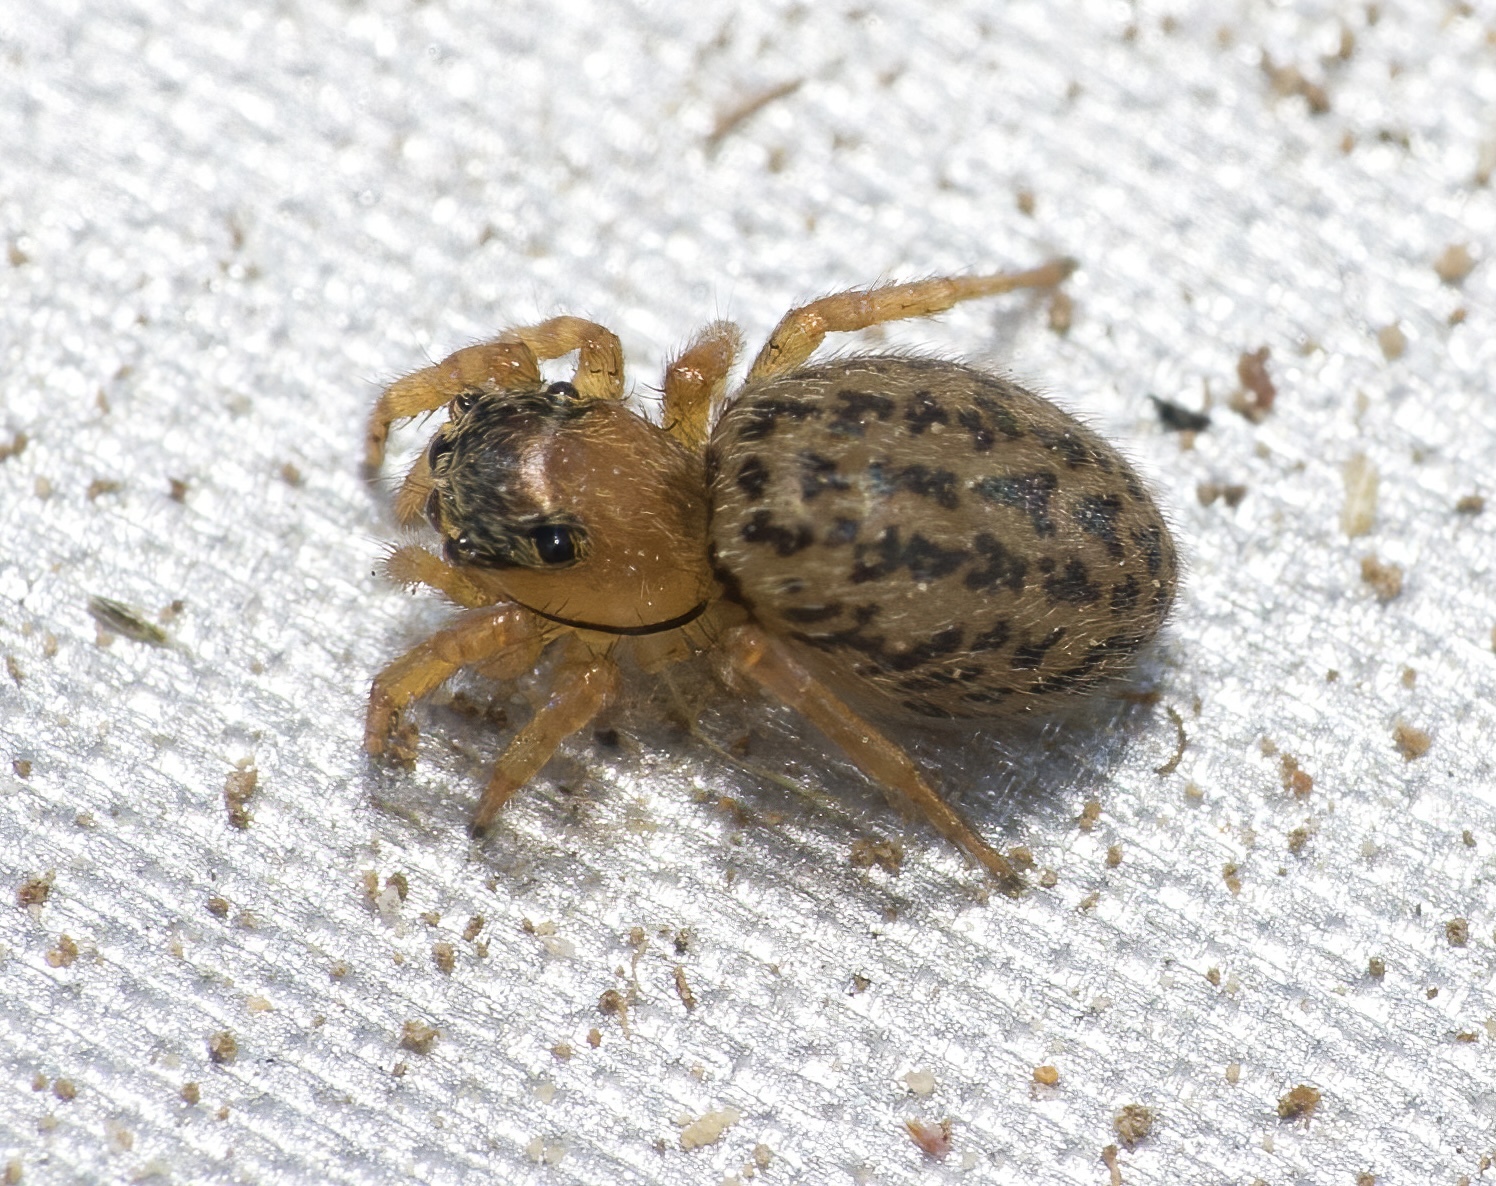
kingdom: Animalia
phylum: Arthropoda
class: Arachnida
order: Araneae
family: Salticidae
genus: Euophrys
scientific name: Euophrys frontalis
